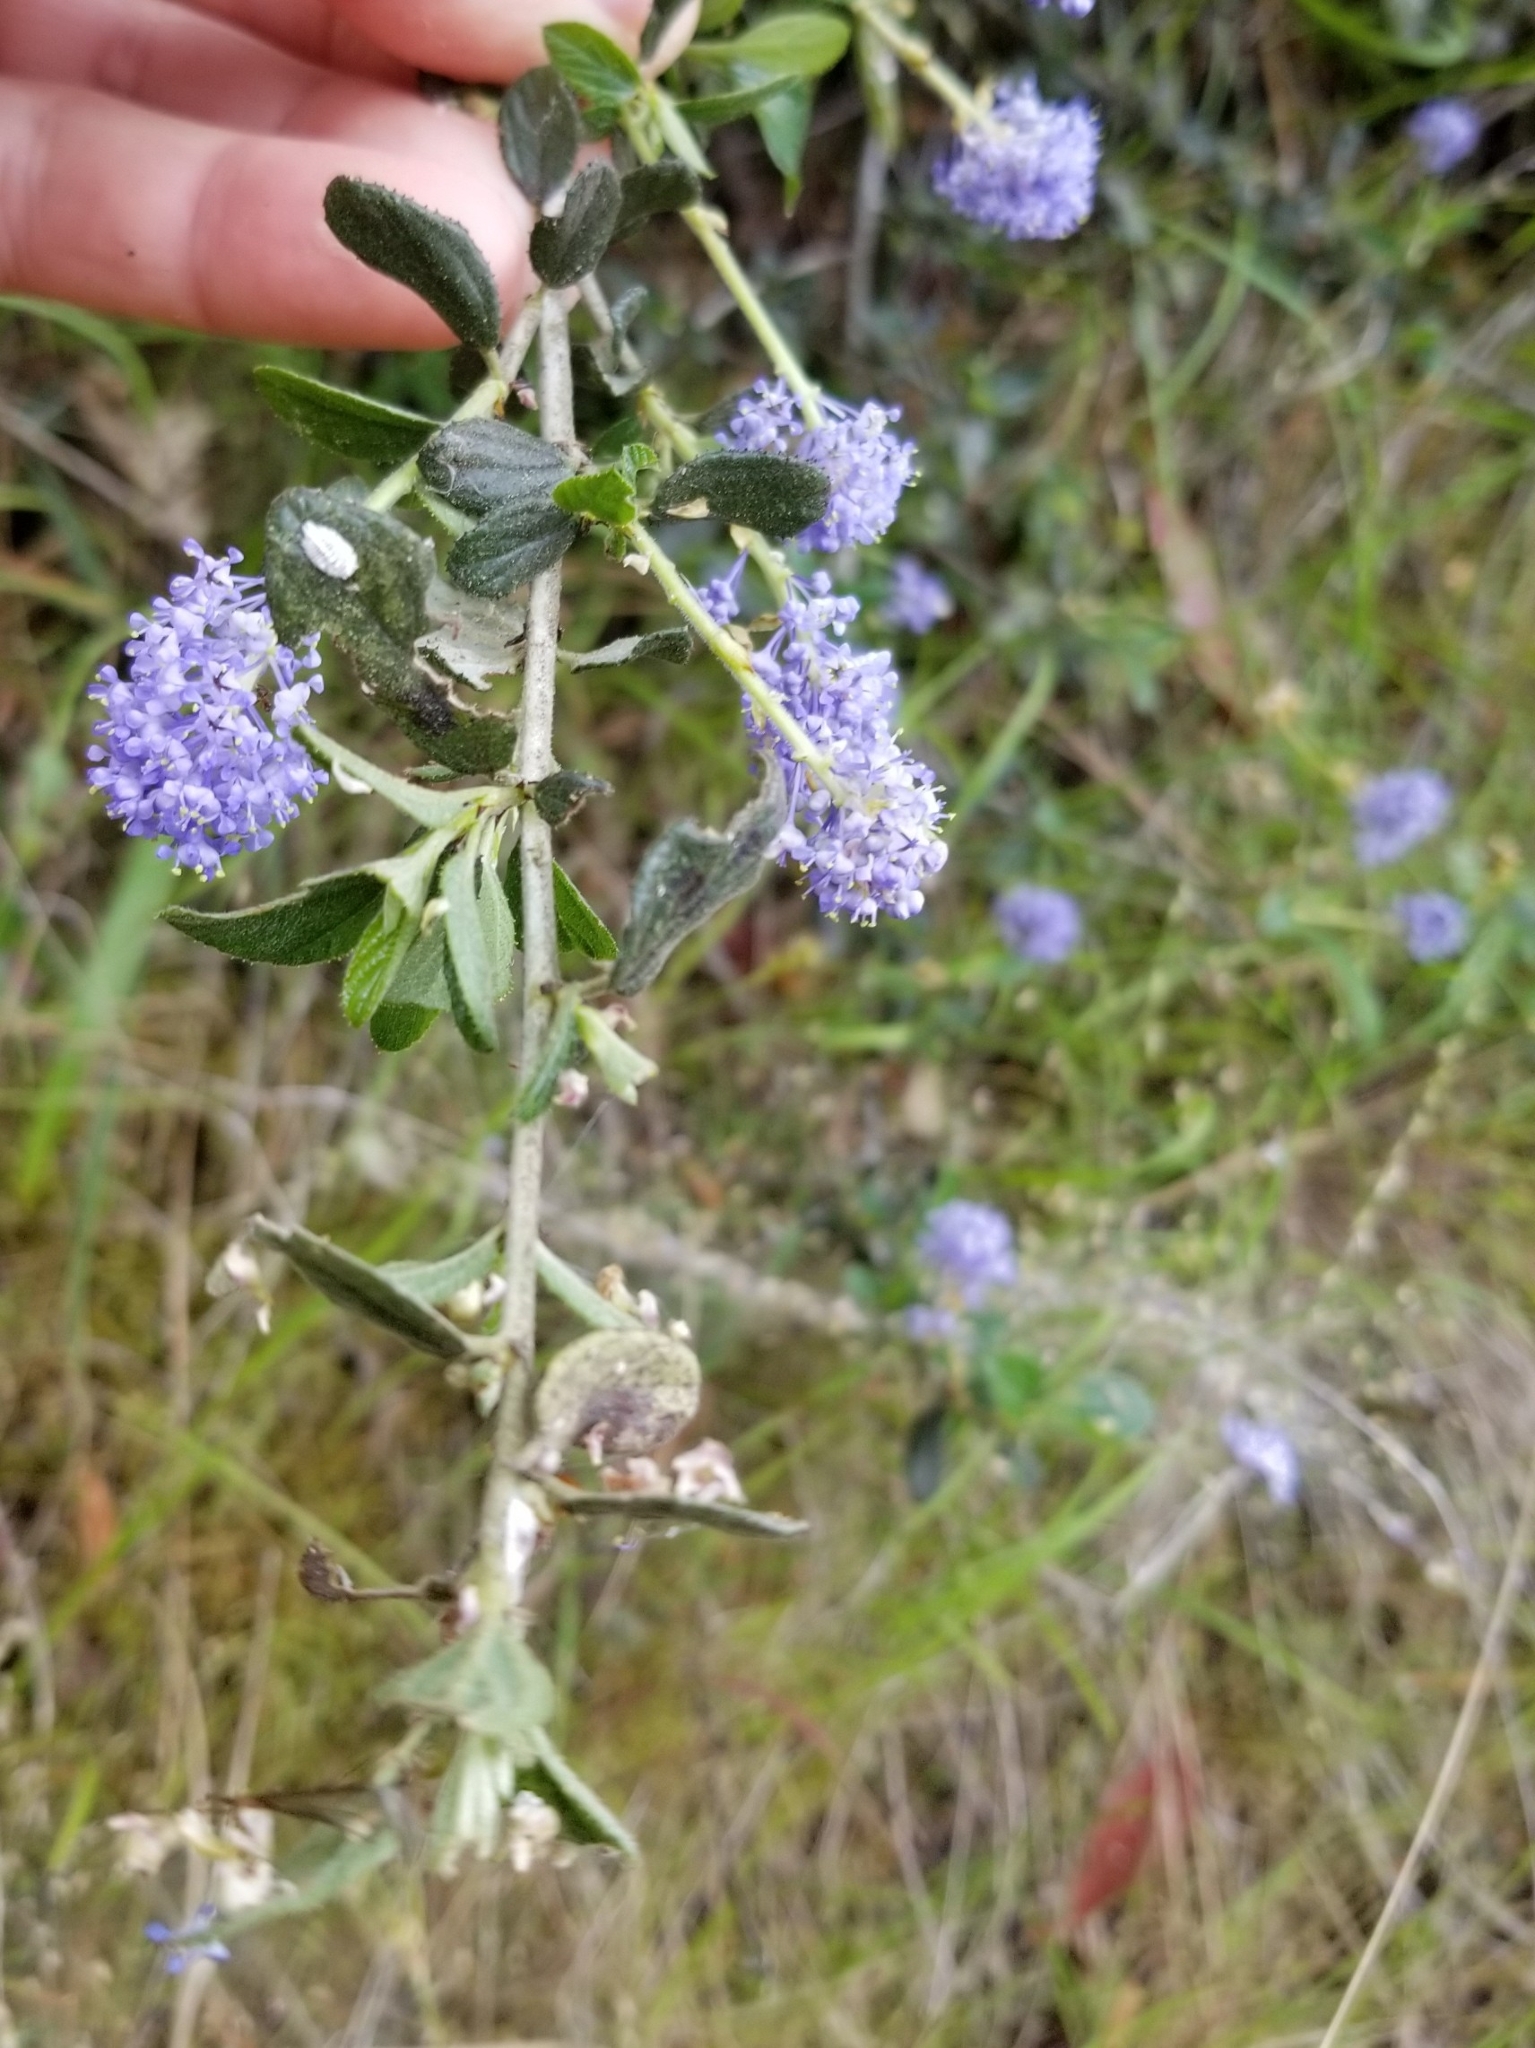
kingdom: Plantae
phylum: Tracheophyta
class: Magnoliopsida
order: Rosales
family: Rhamnaceae
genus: Ceanothus
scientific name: Ceanothus lemmonii
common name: Lemmon's ceanothus
